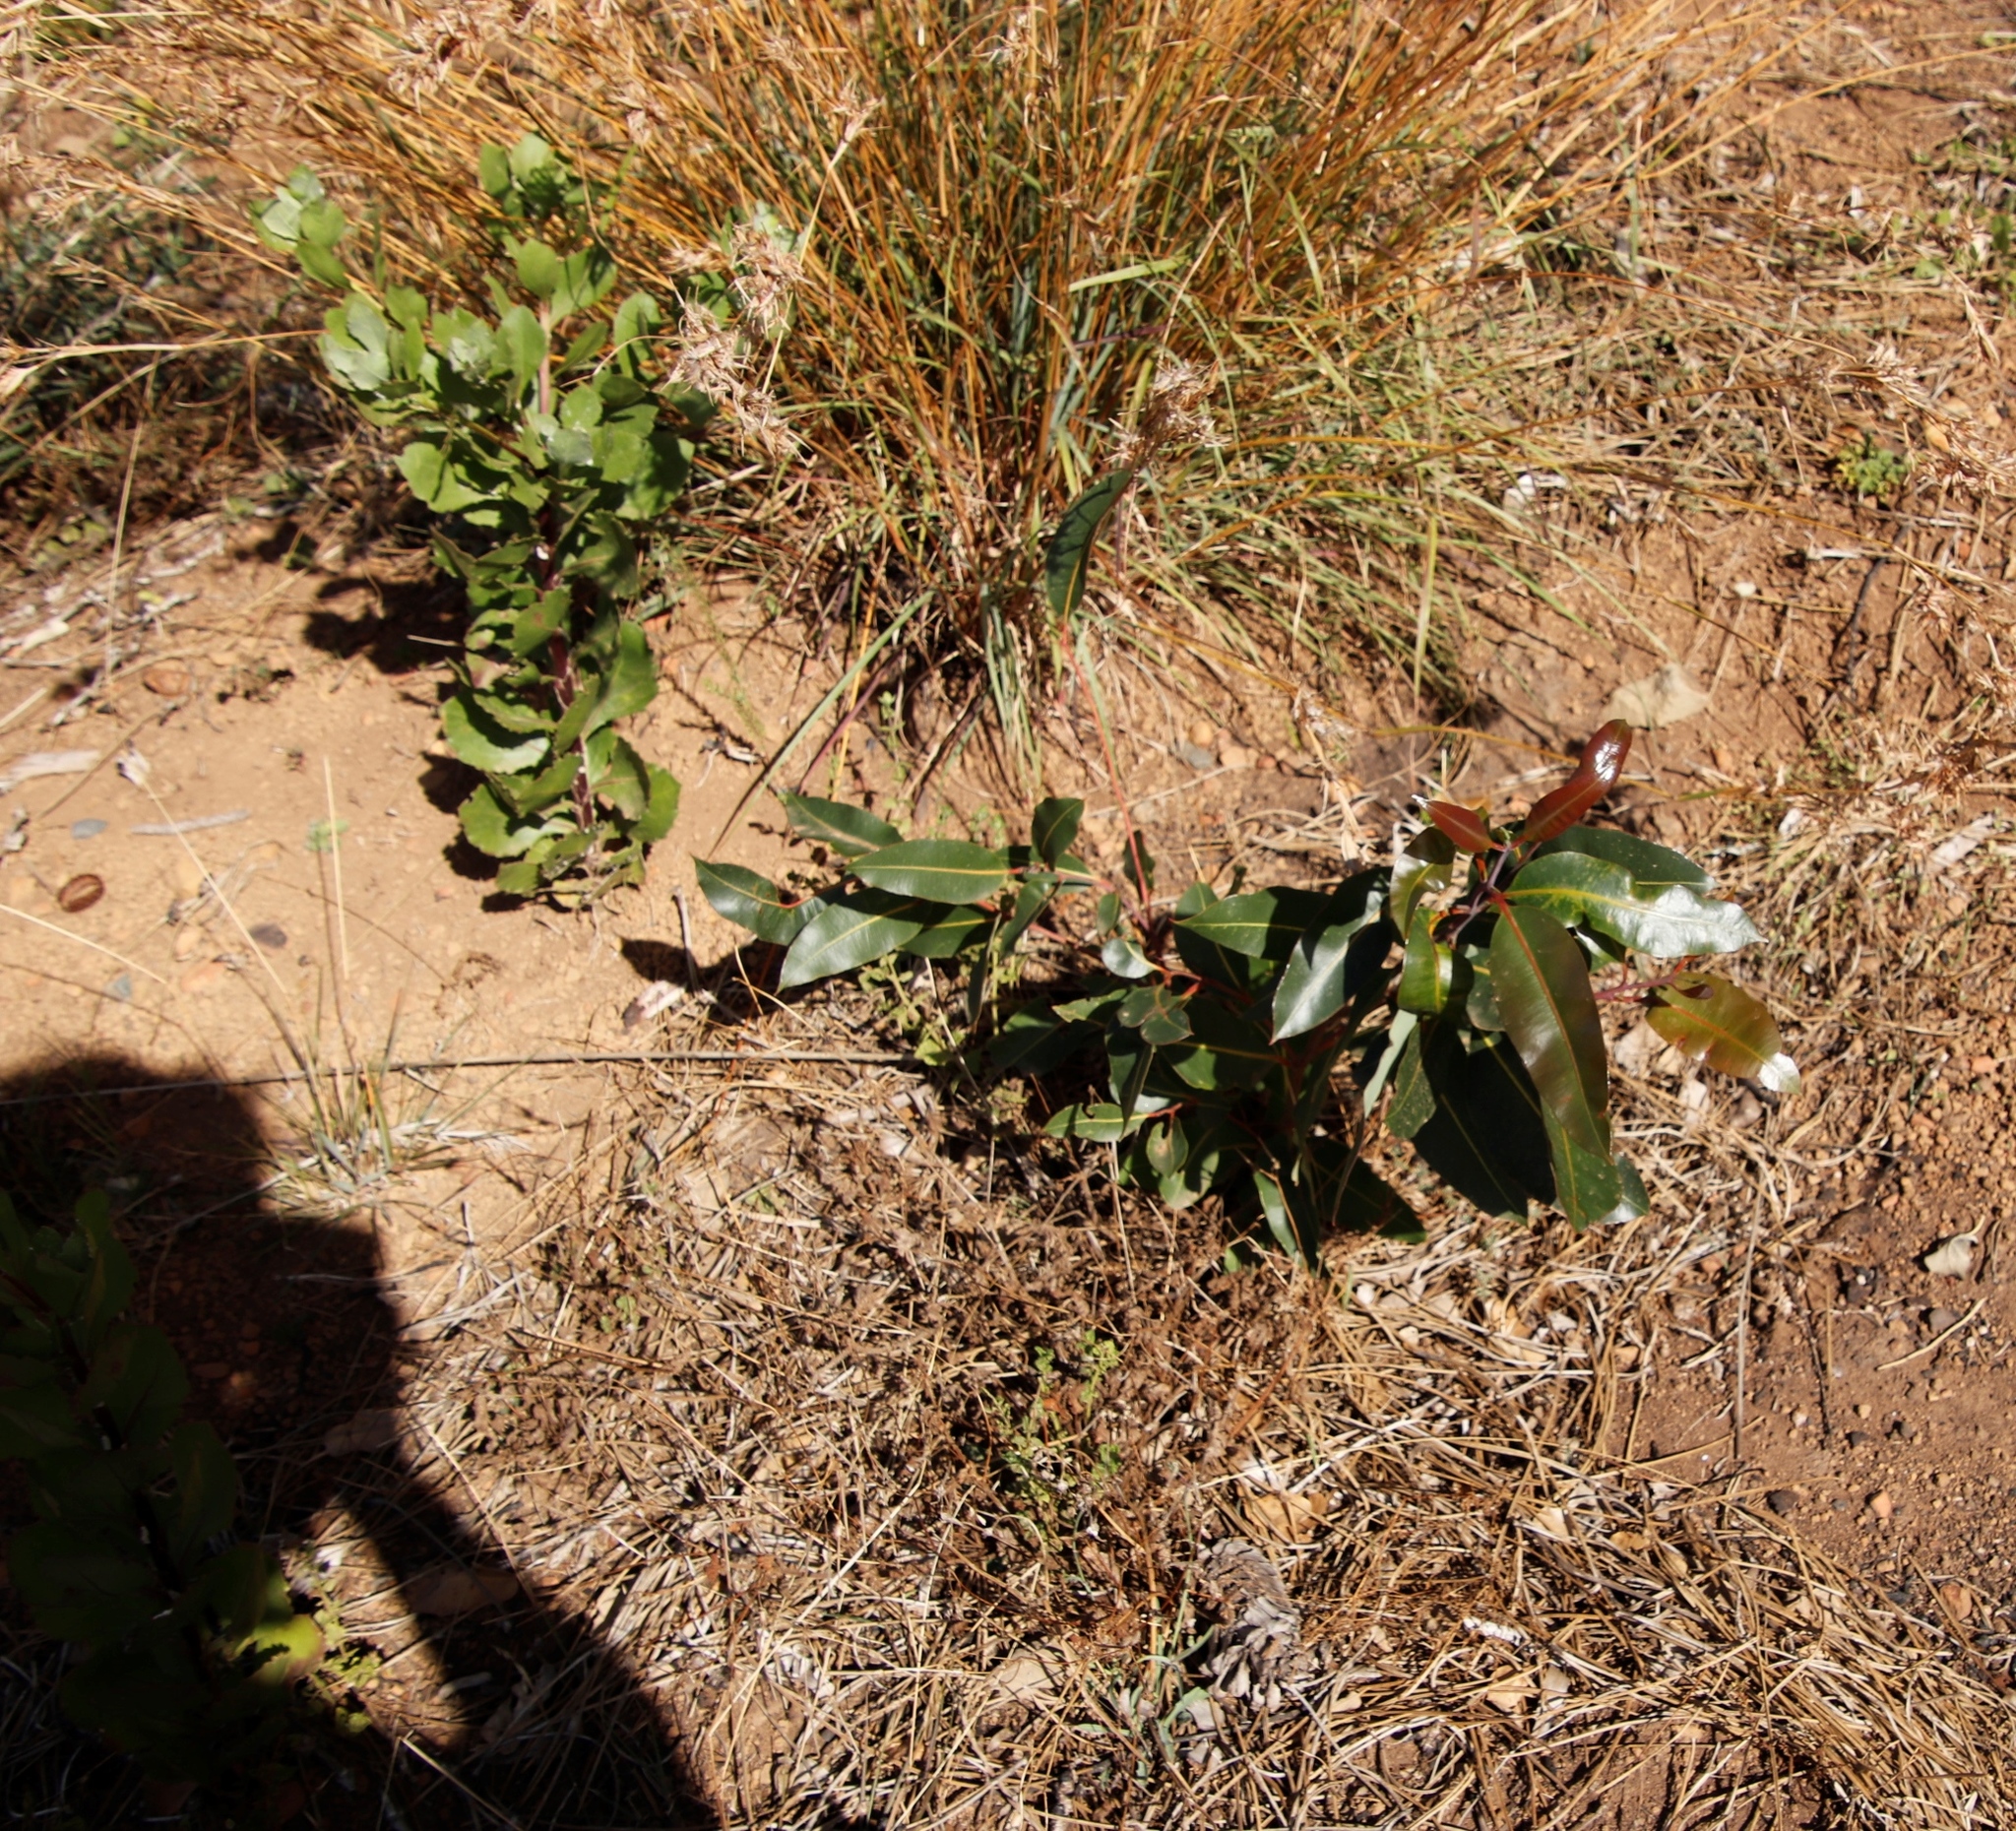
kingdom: Plantae
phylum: Tracheophyta
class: Magnoliopsida
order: Myrtales
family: Myrtaceae
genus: Corymbia
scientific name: Corymbia ficifolia
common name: Redflower gum
